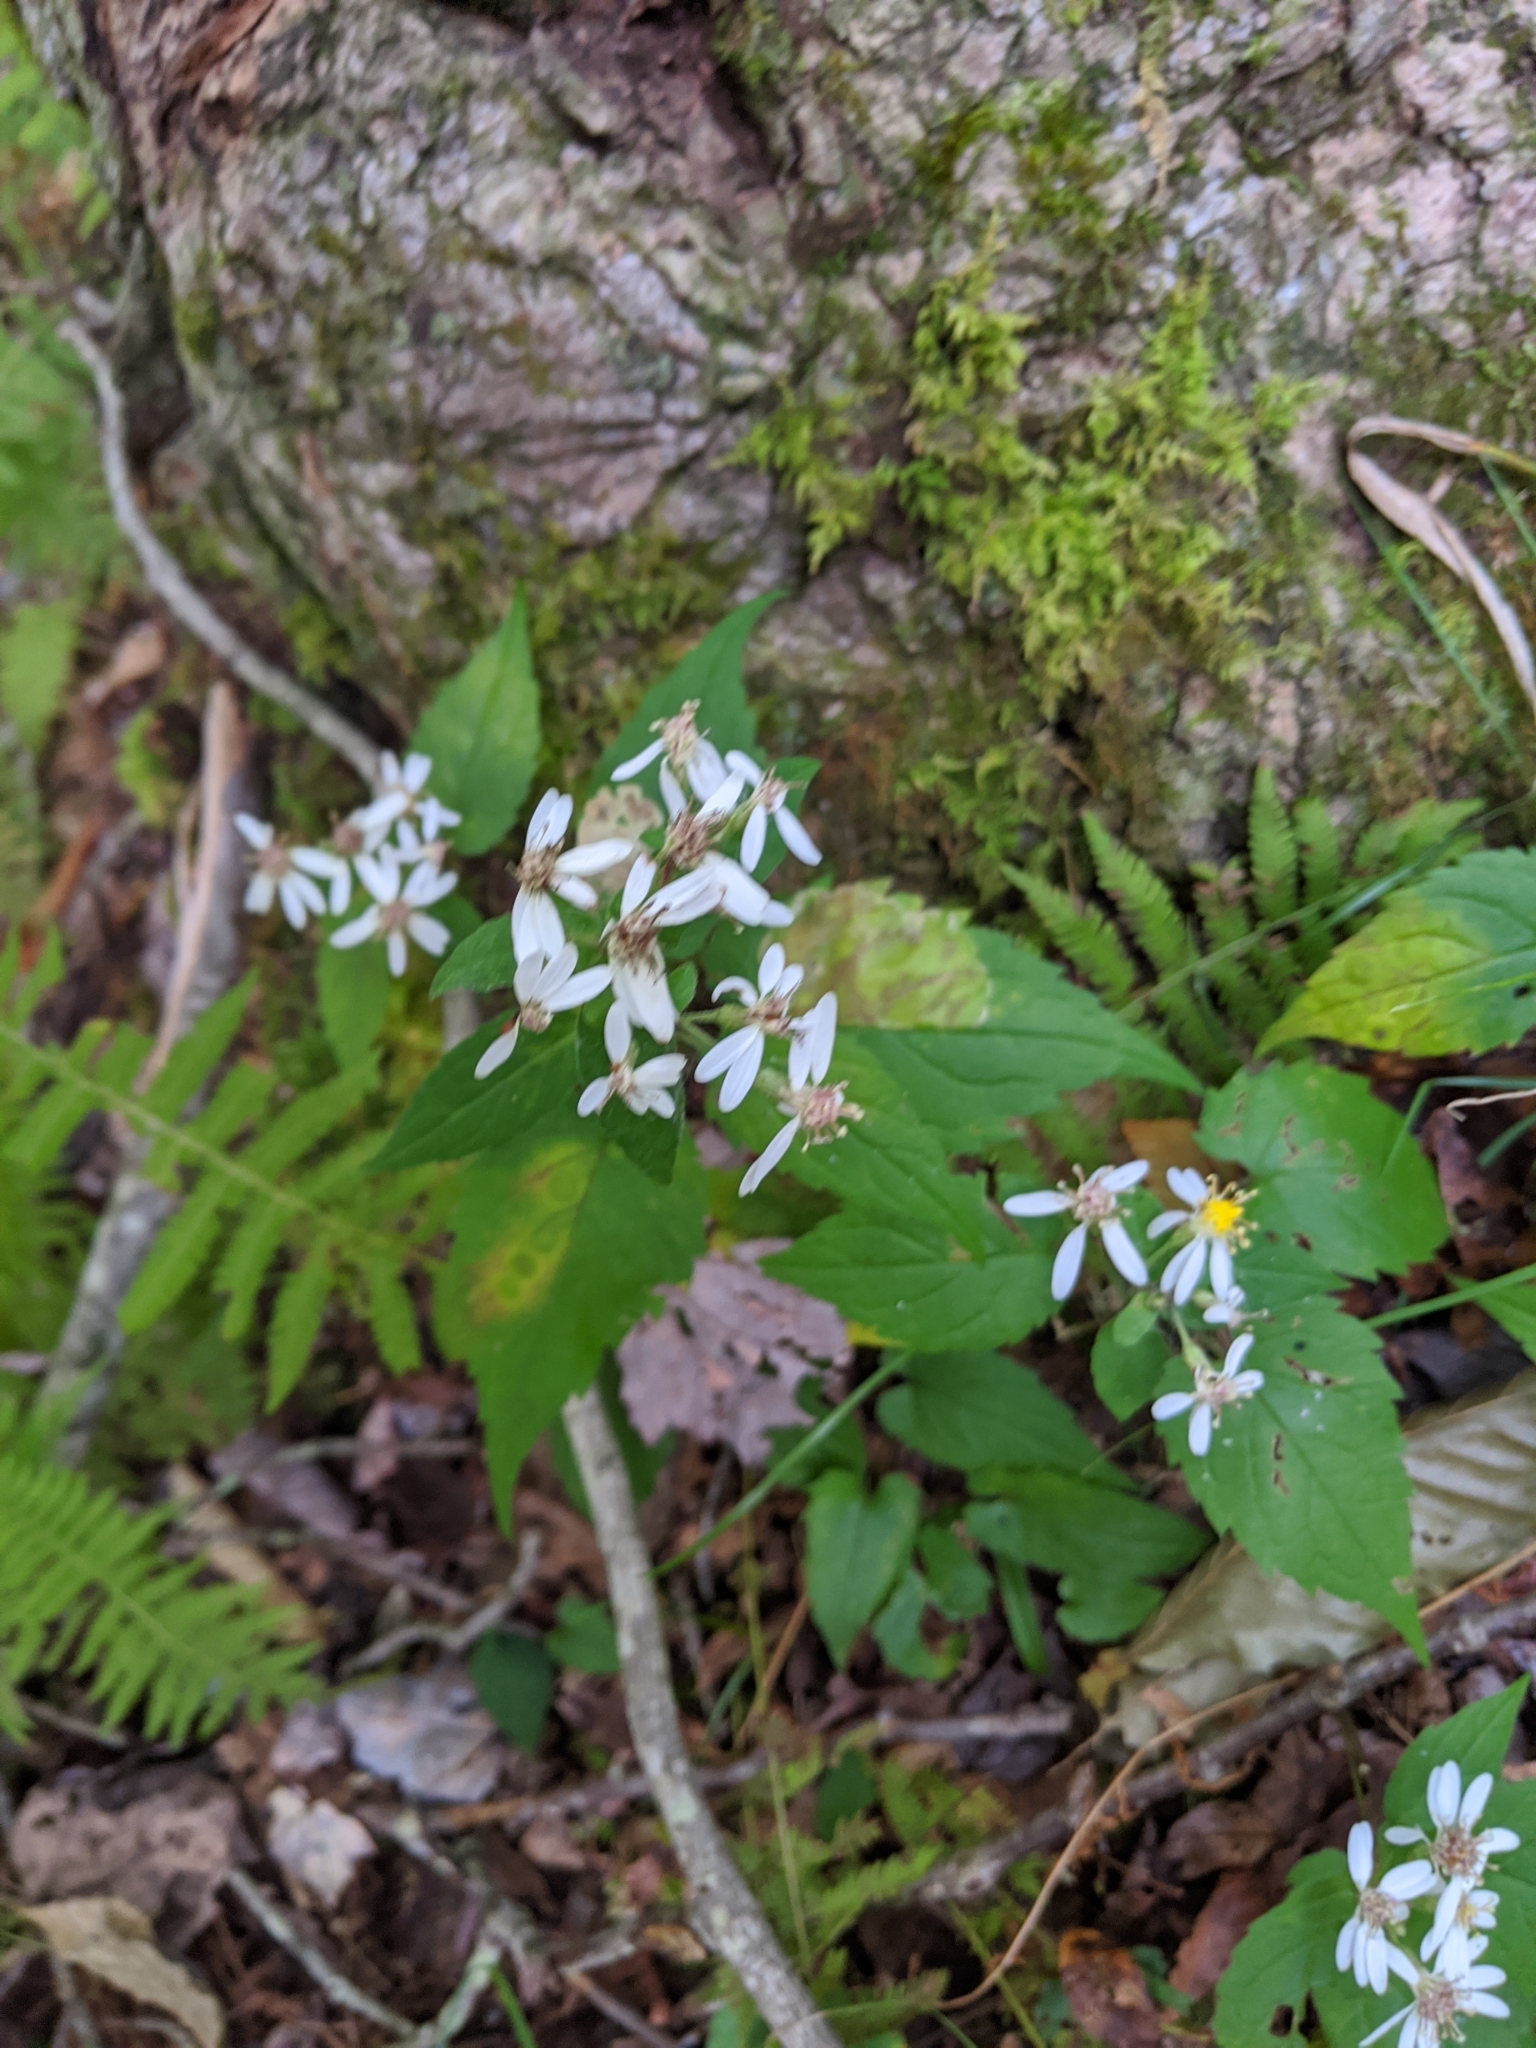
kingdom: Plantae
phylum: Tracheophyta
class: Magnoliopsida
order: Asterales
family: Asteraceae
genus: Eurybia
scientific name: Eurybia divaricata
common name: White wood aster
